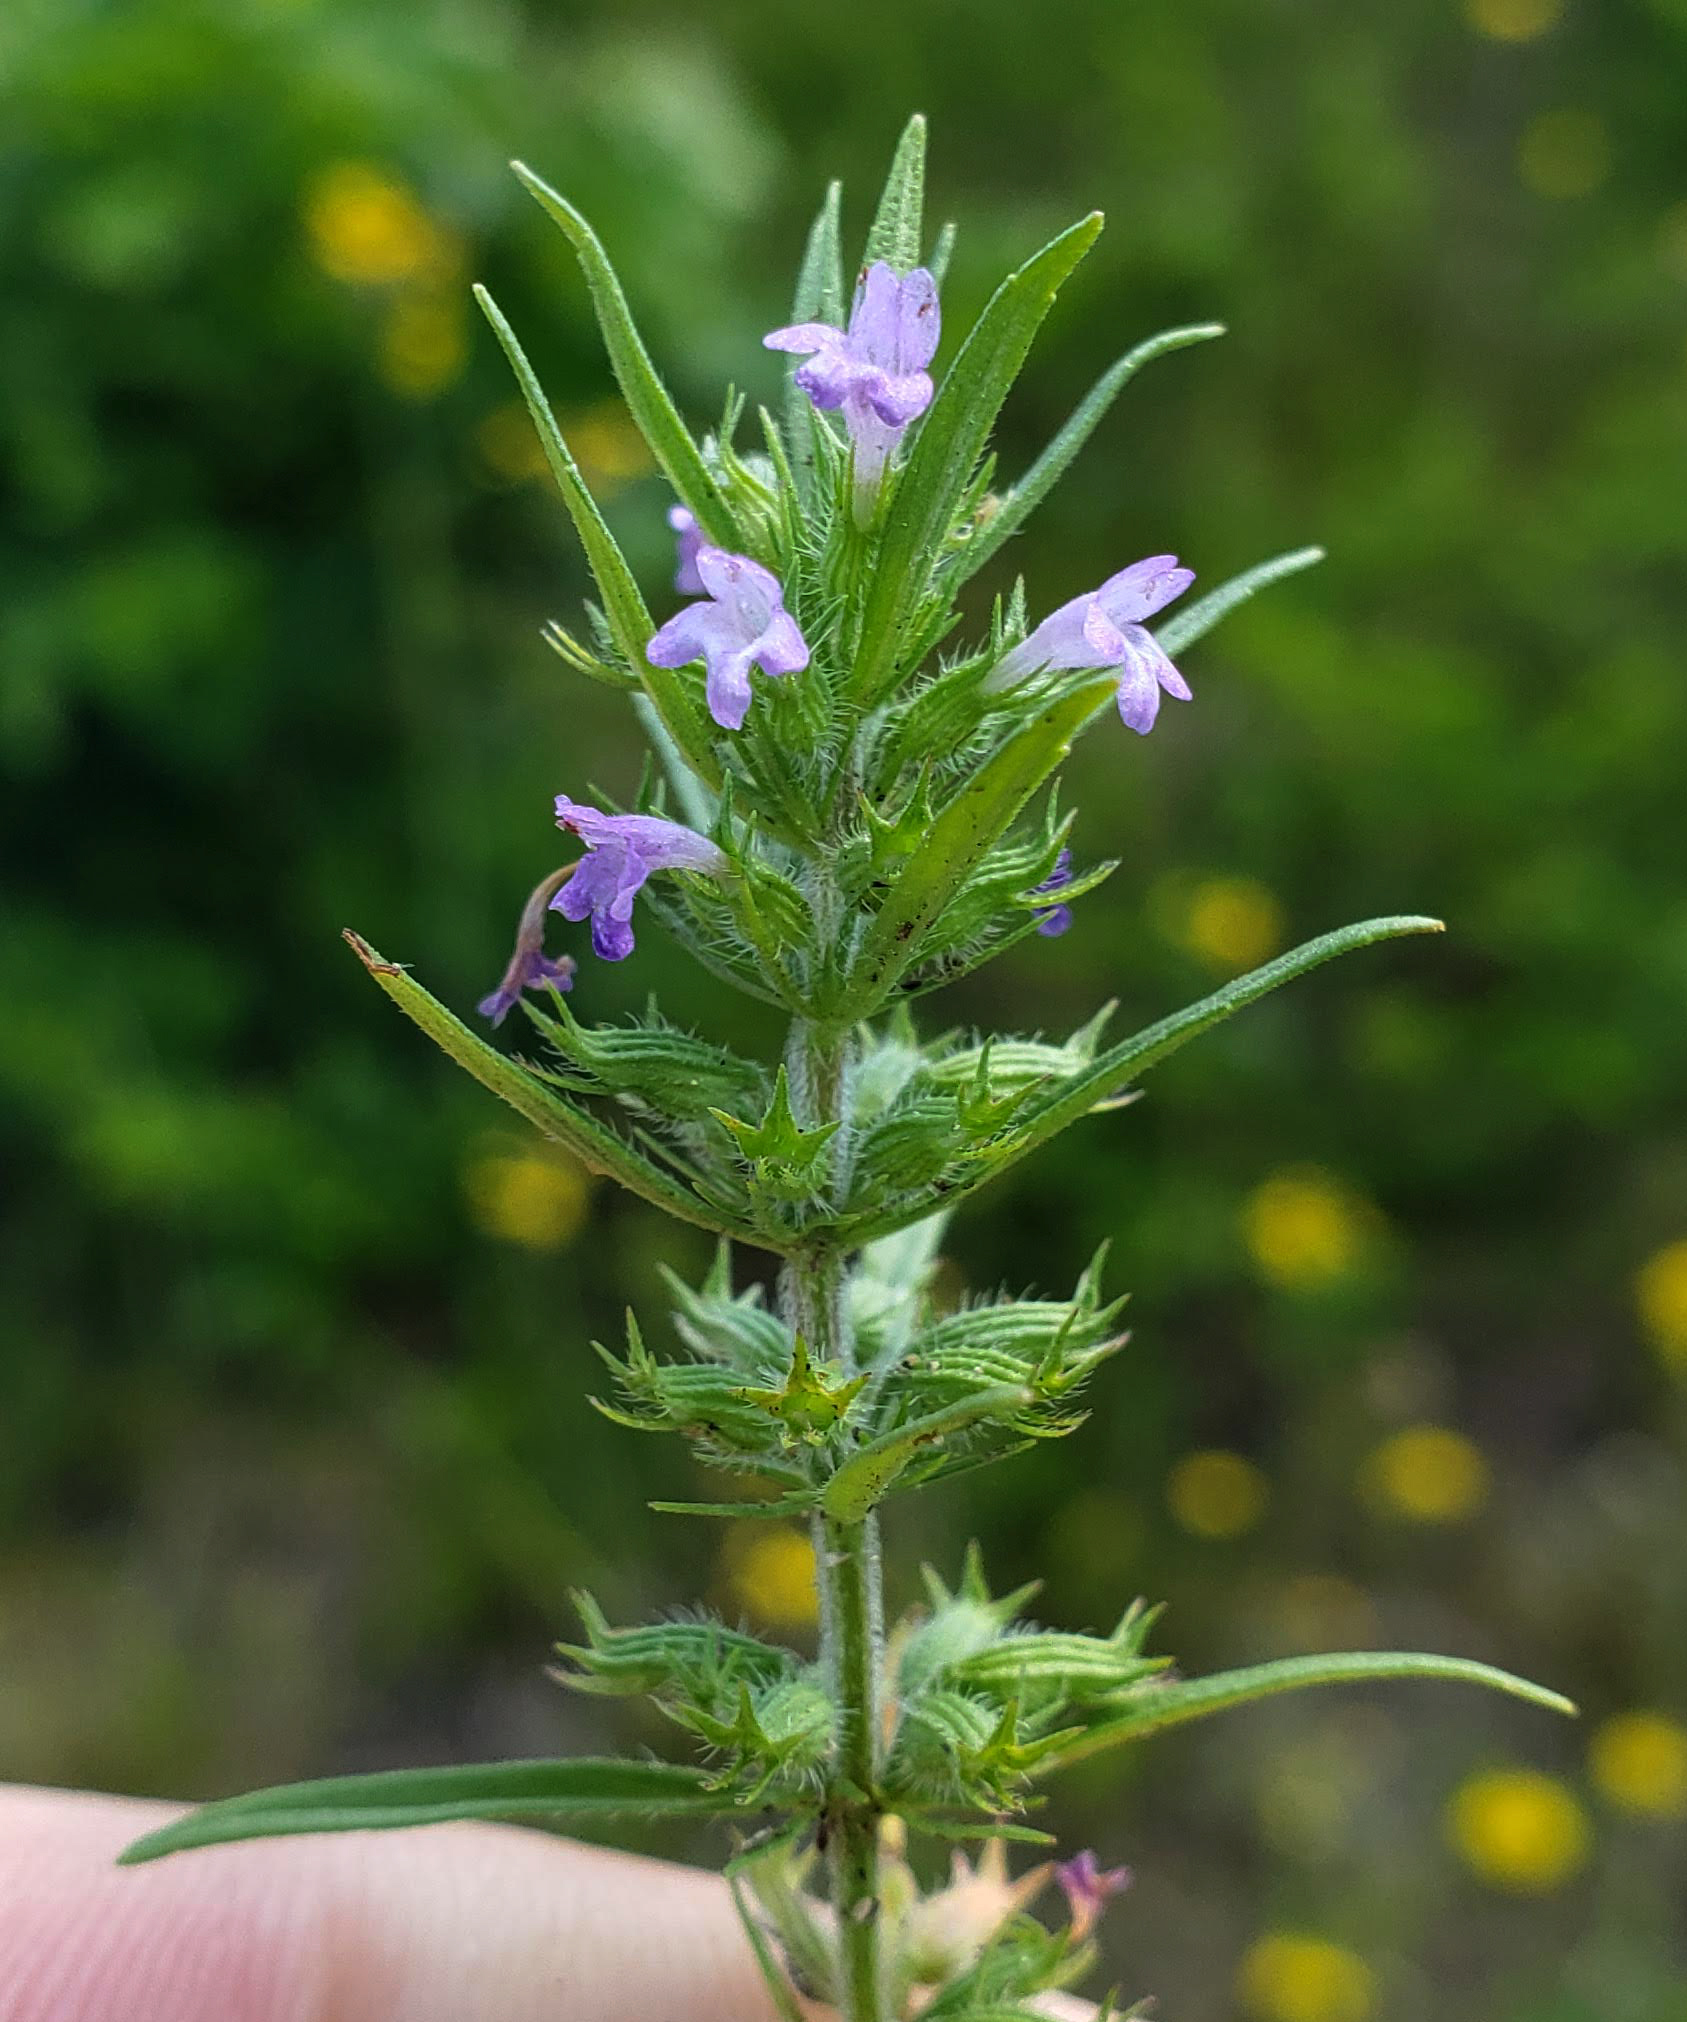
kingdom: Plantae
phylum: Tracheophyta
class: Magnoliopsida
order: Lamiales
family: Lamiaceae
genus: Hedeoma
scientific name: Hedeoma hispida
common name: Mock pennyroyal
